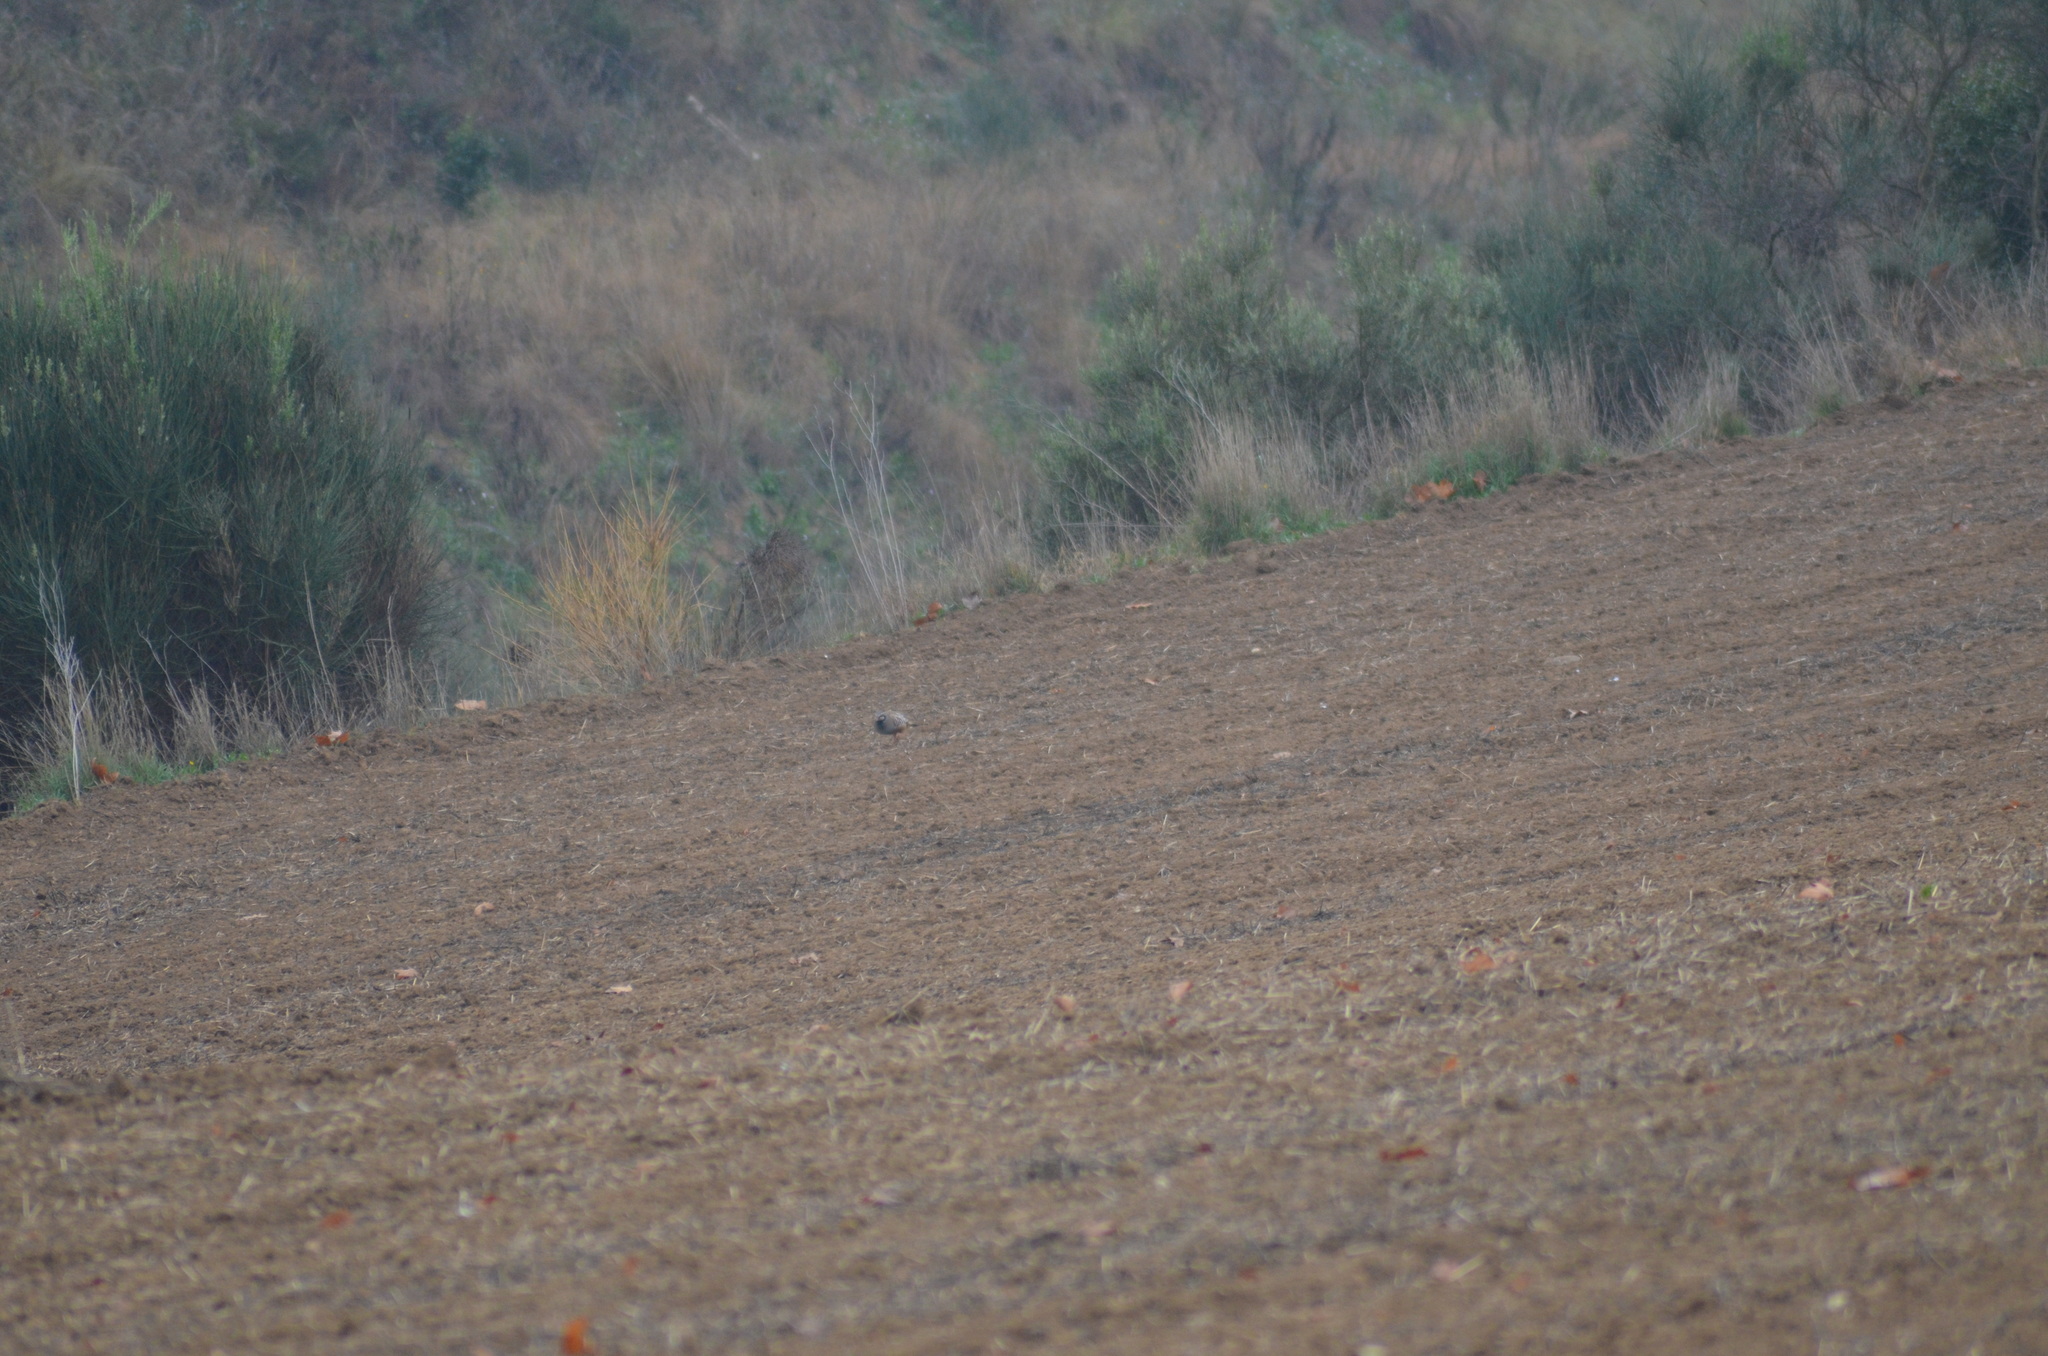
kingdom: Animalia
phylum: Chordata
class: Aves
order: Galliformes
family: Phasianidae
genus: Alectoris
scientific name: Alectoris rufa
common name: Red-legged partridge
